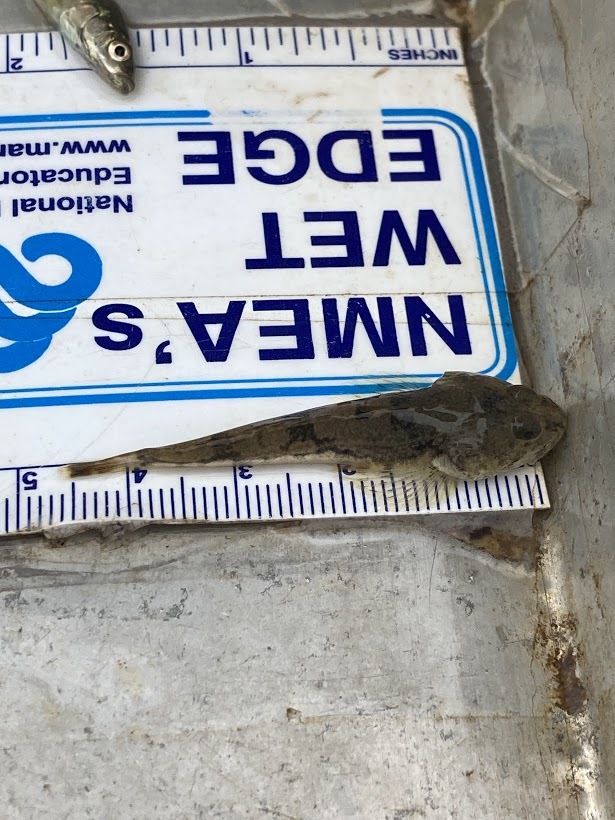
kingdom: Animalia
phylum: Chordata
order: Scorpaeniformes
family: Cottidae
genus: Leptocottus
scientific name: Leptocottus armatus
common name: Pacific staghorn sculpin
